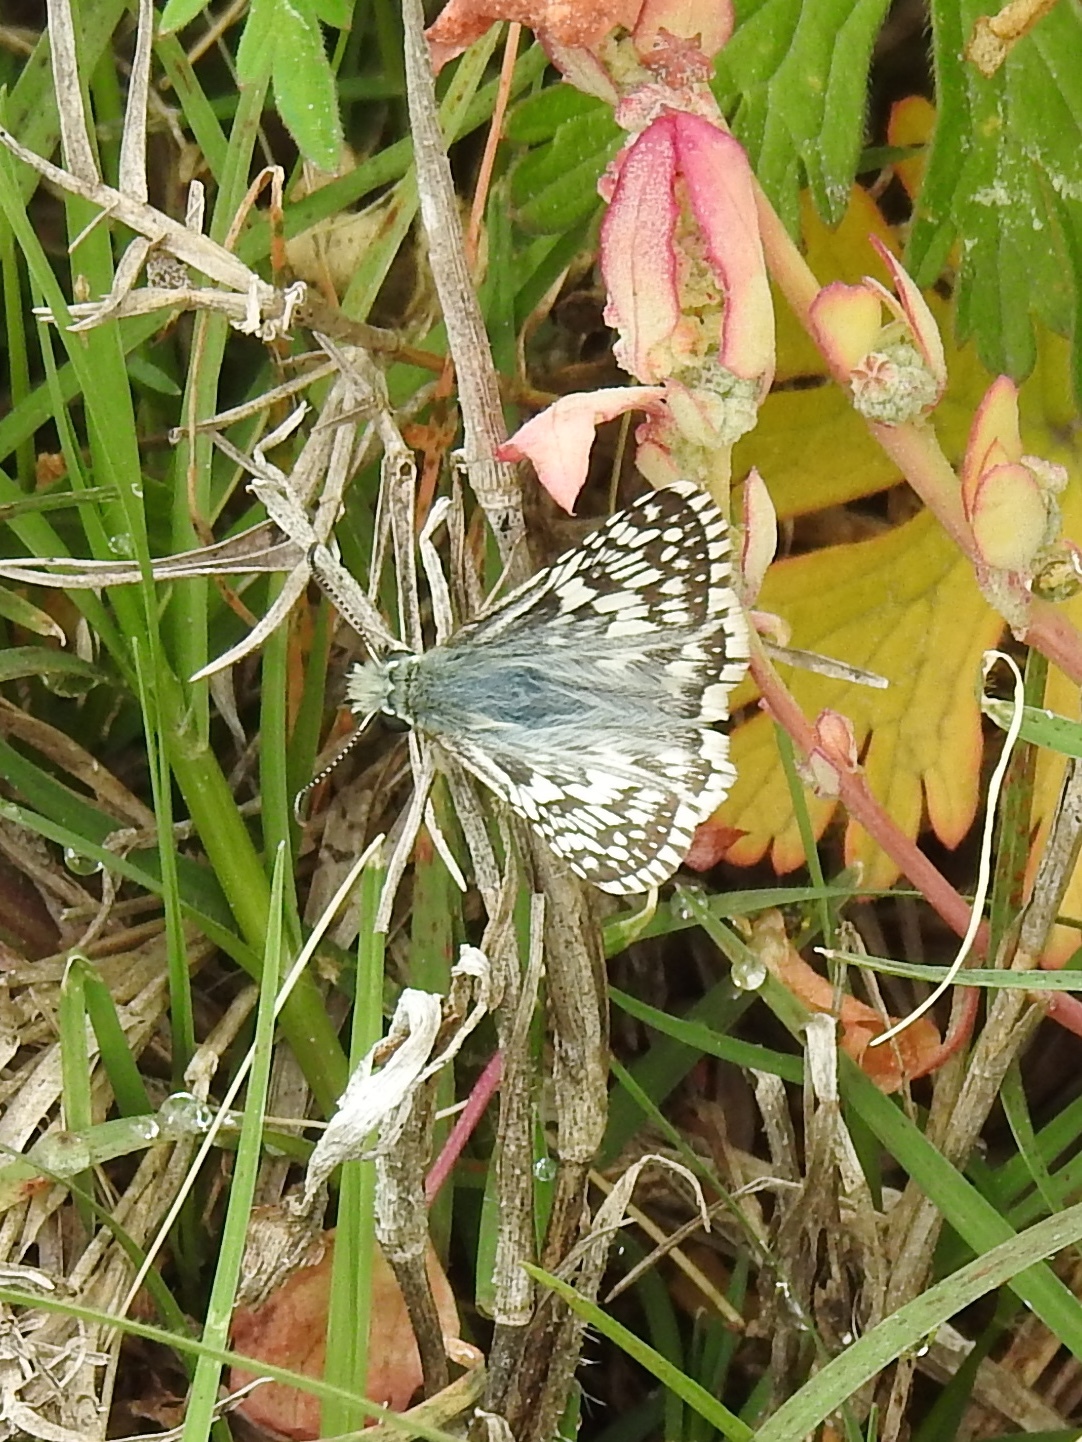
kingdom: Animalia
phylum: Arthropoda
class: Insecta
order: Lepidoptera
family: Hesperiidae
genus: Burnsius
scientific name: Burnsius albezens
